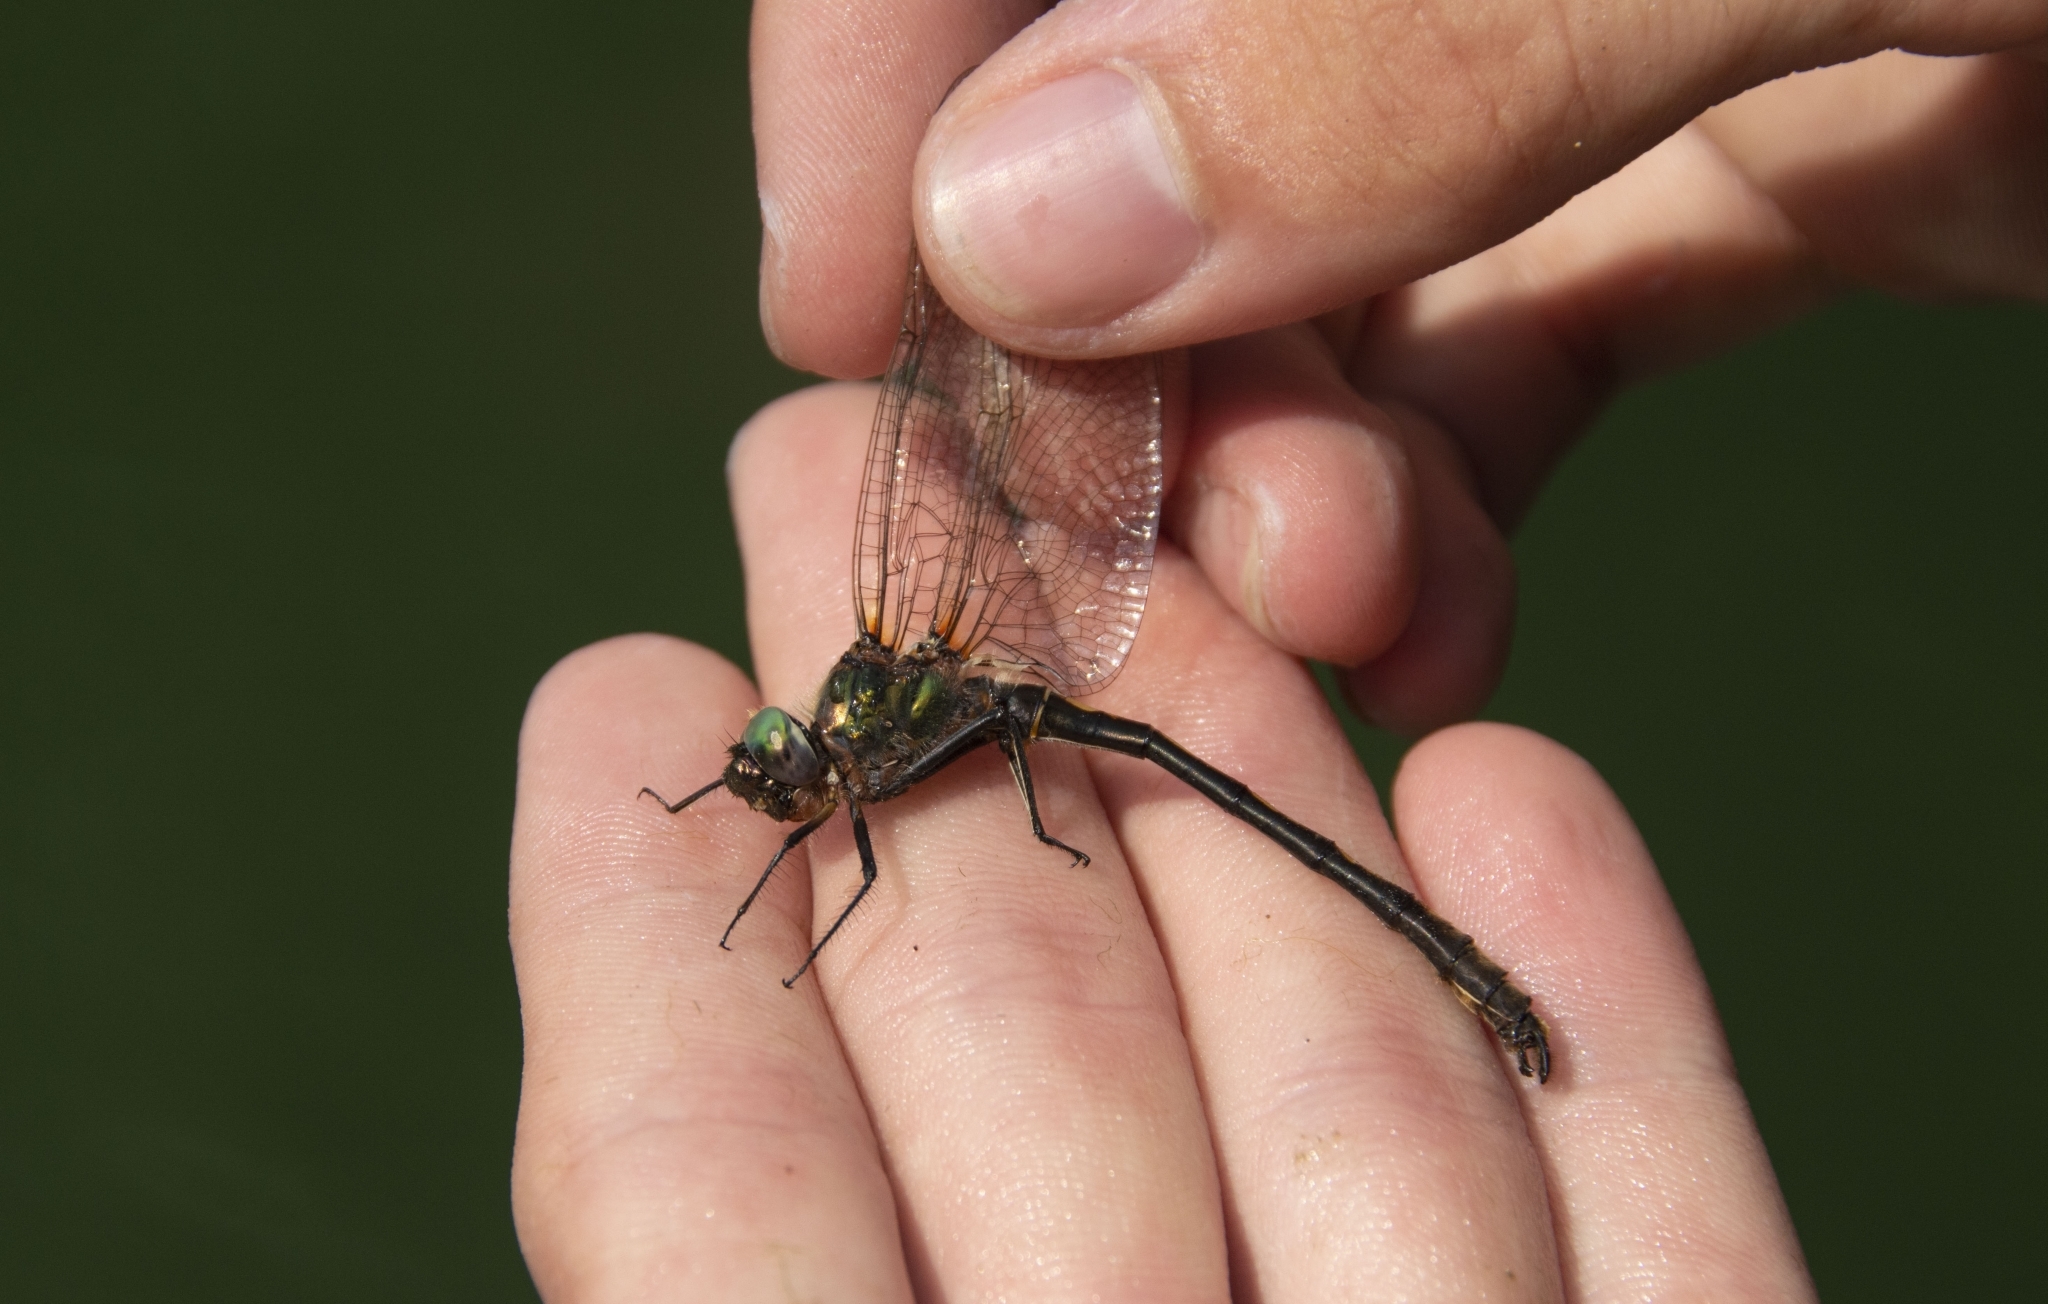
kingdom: Animalia
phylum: Arthropoda
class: Insecta
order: Odonata
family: Corduliidae
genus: Oxygastra
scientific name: Oxygastra curtisii
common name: Orange-spotted emerald
